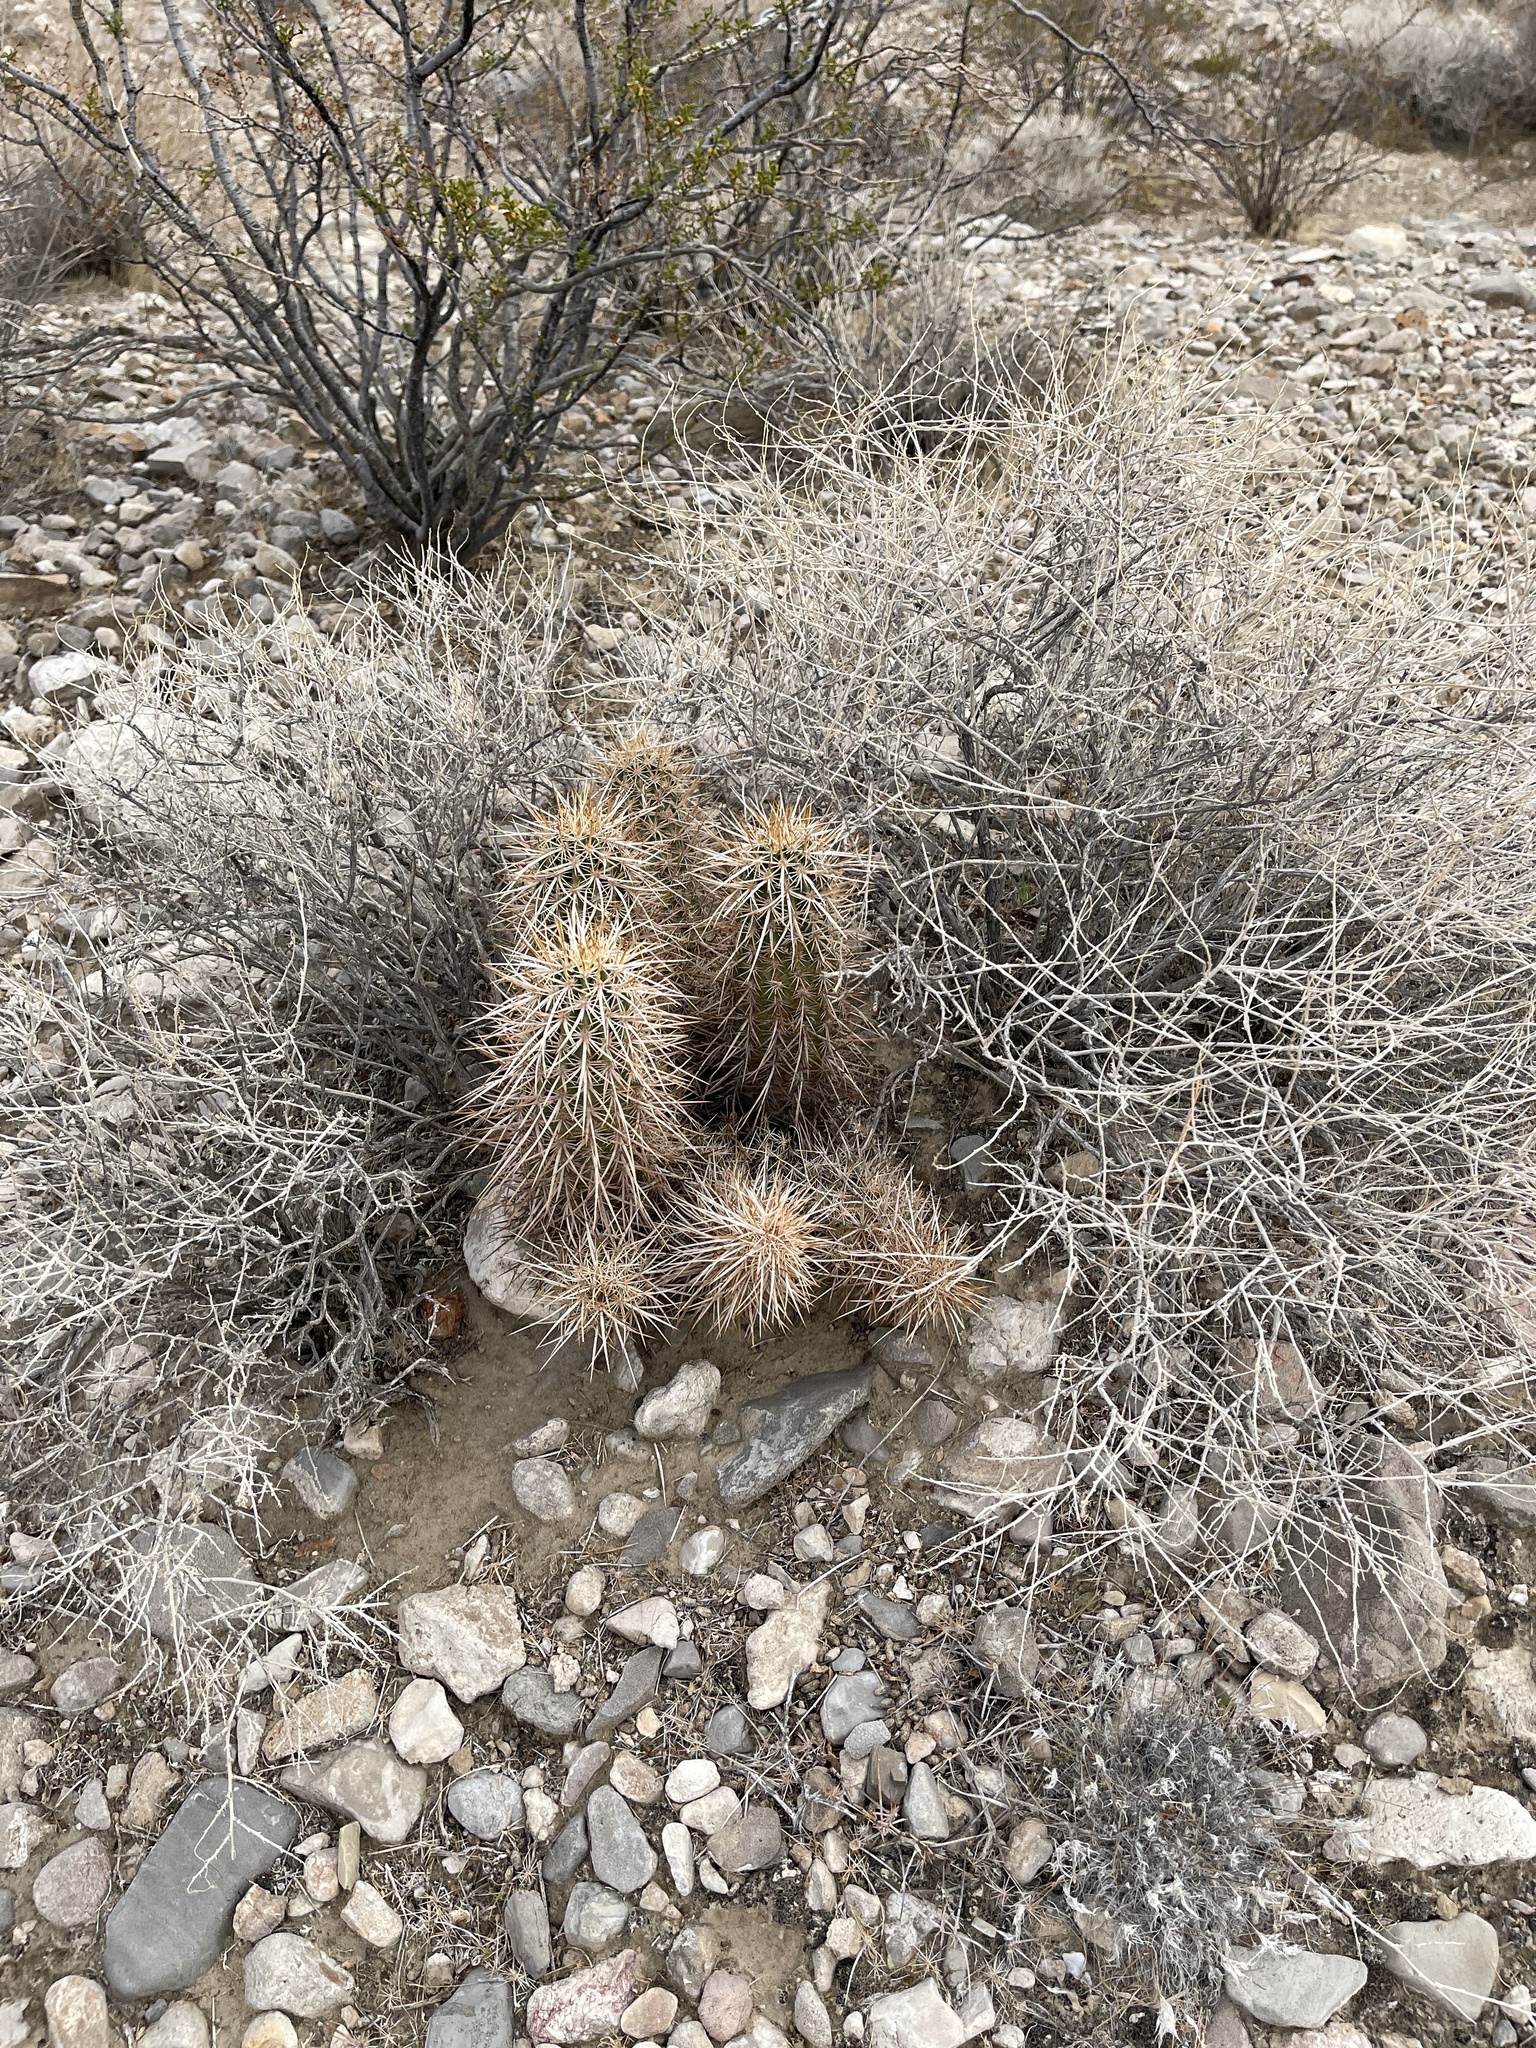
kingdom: Plantae
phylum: Tracheophyta
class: Magnoliopsida
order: Caryophyllales
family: Cactaceae
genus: Echinocereus
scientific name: Echinocereus engelmannii
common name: Engelmann's hedgehog cactus
